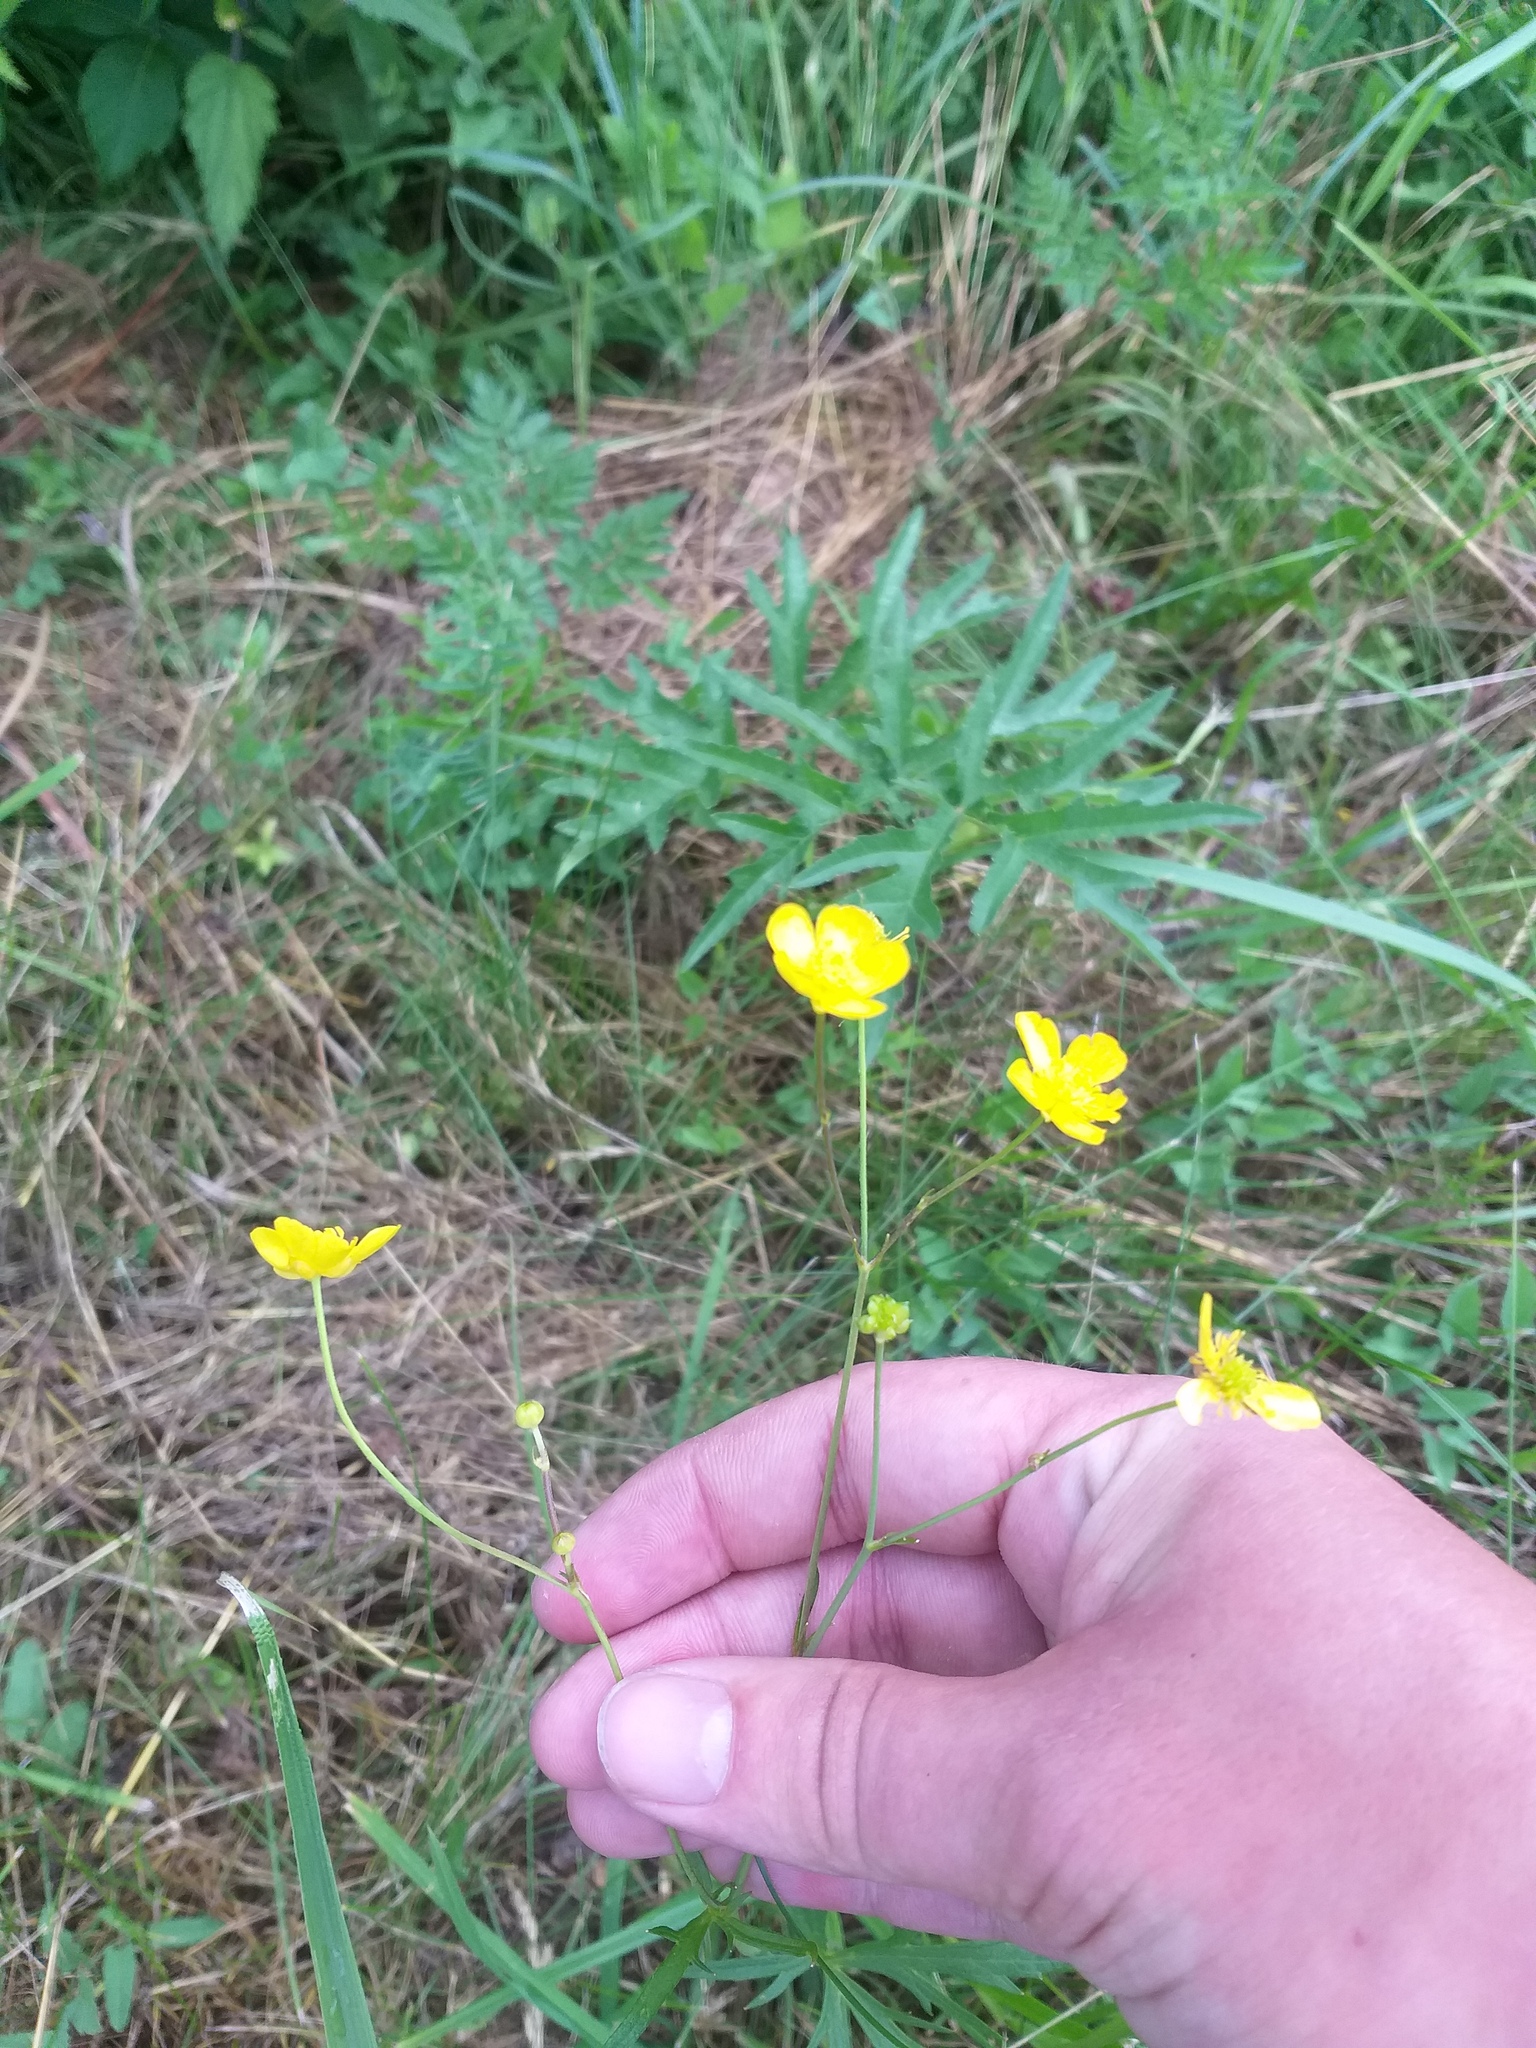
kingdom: Plantae
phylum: Tracheophyta
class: Magnoliopsida
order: Ranunculales
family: Ranunculaceae
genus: Ranunculus
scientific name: Ranunculus acris
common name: Meadow buttercup
